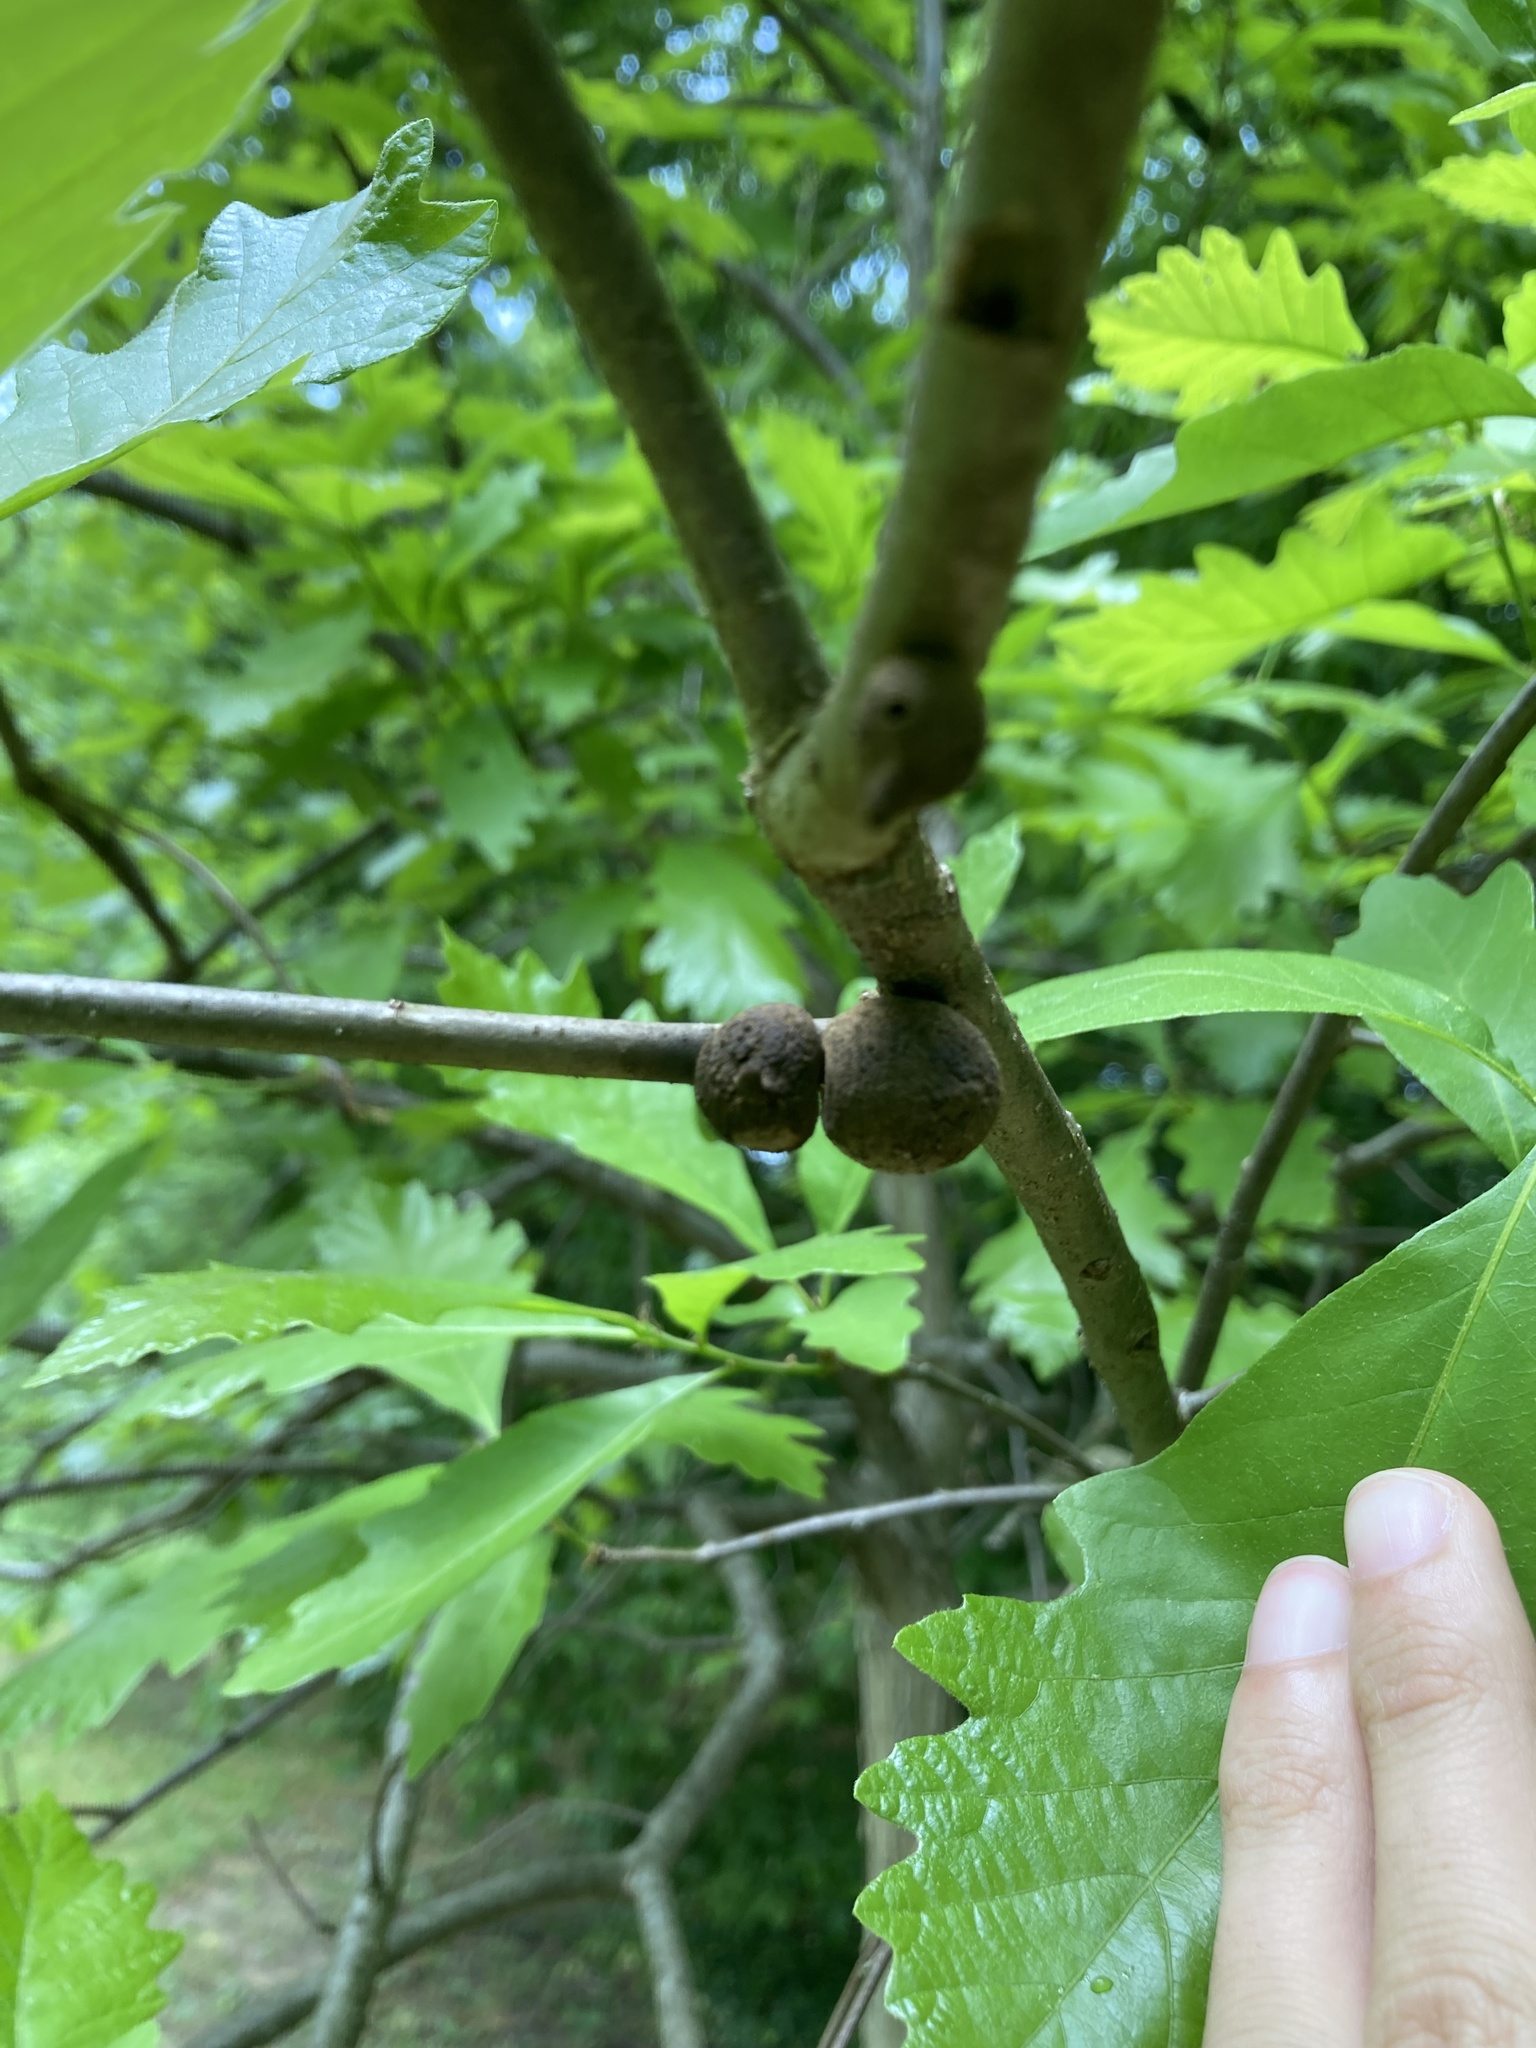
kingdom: Animalia
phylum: Arthropoda
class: Insecta
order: Hymenoptera
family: Cynipidae
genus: Disholcaspis
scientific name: Disholcaspis
